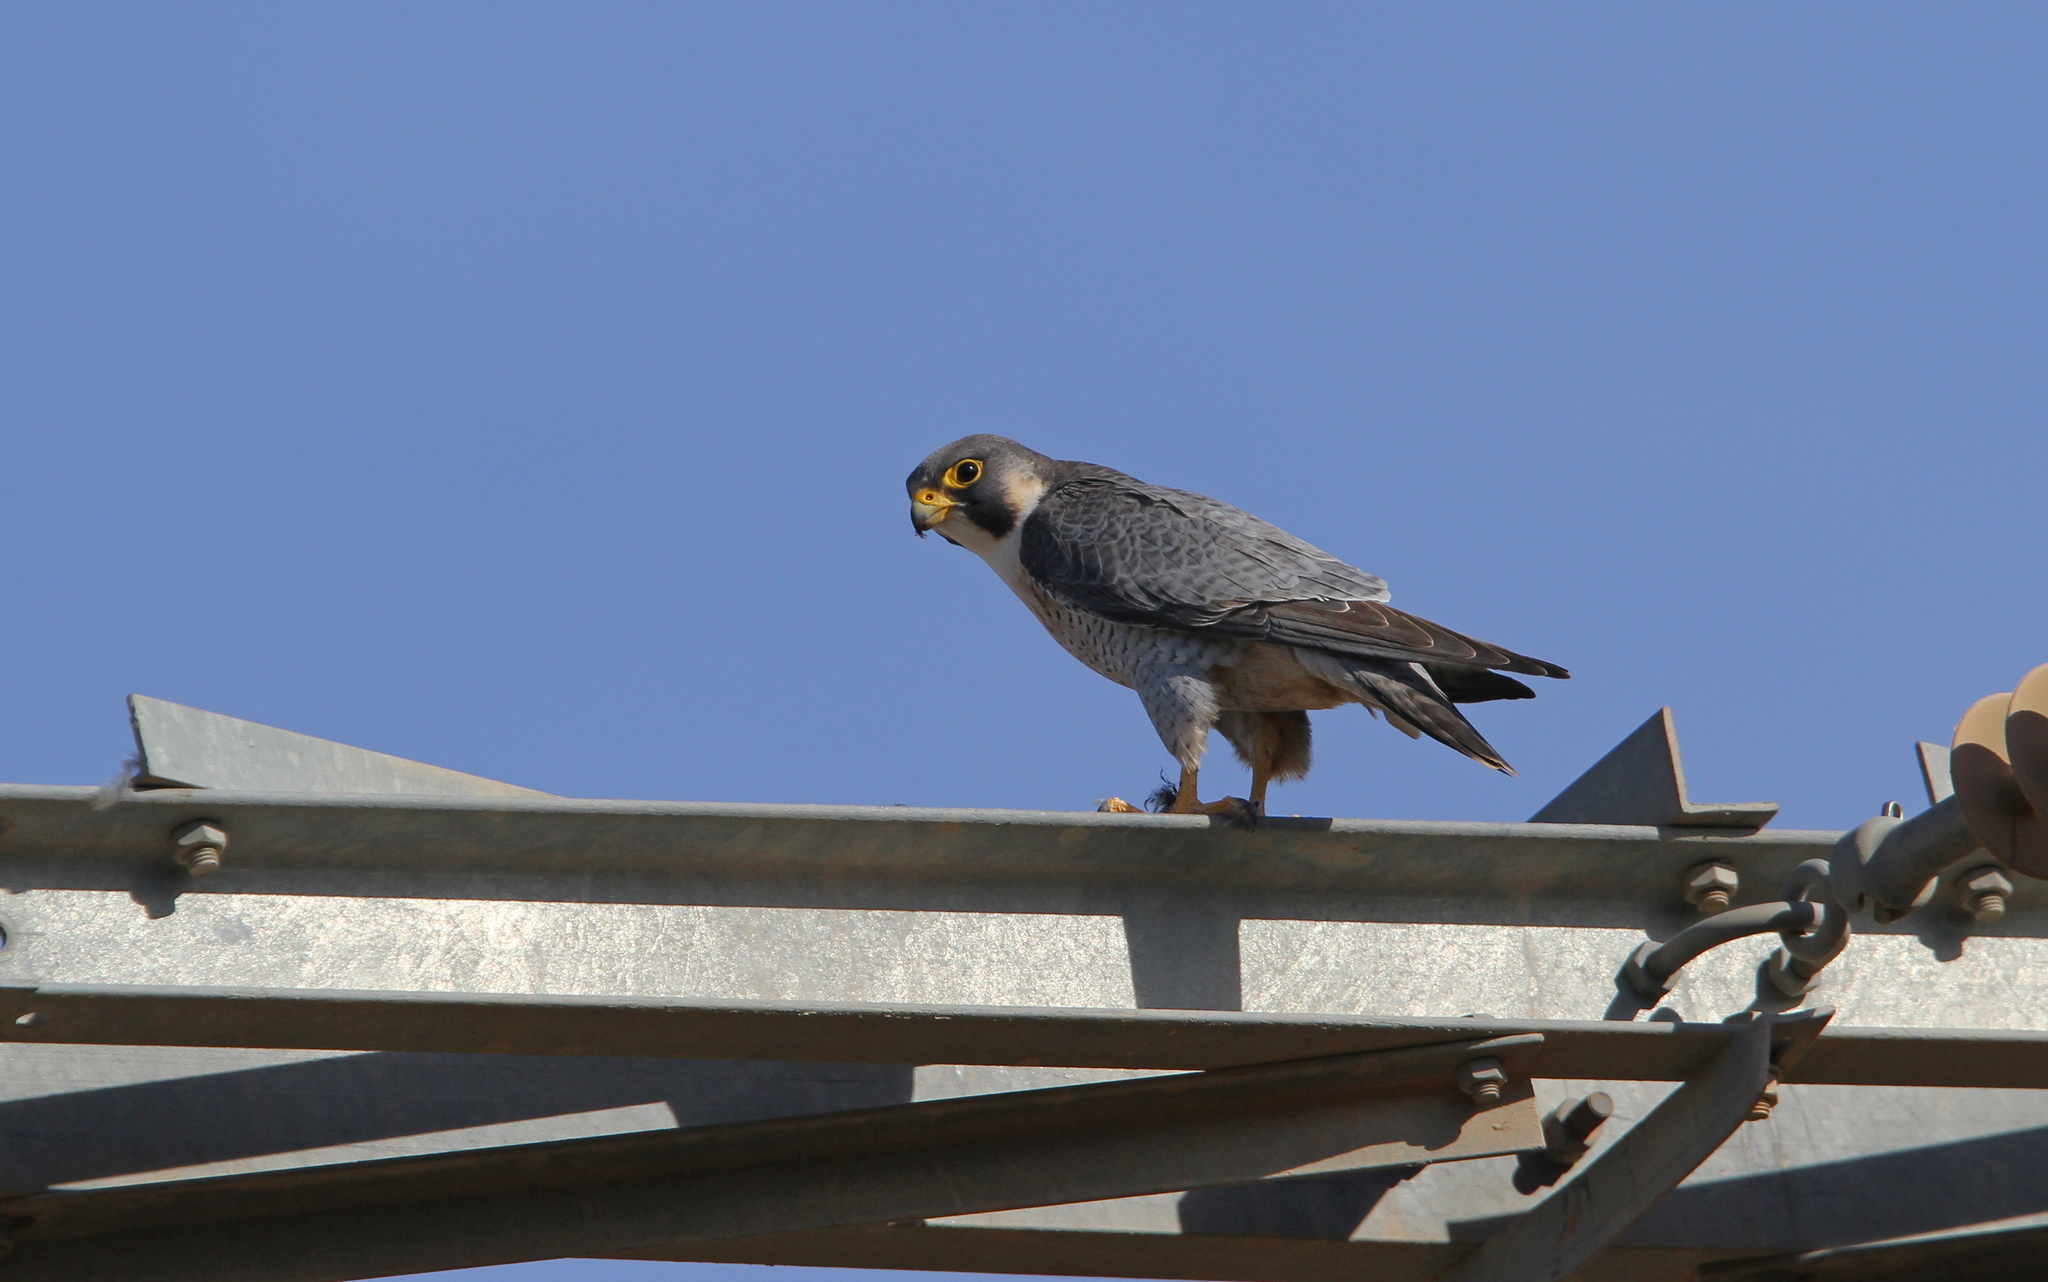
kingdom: Animalia
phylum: Chordata
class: Aves
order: Falconiformes
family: Falconidae
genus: Falco
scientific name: Falco peregrinus
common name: Peregrine falcon
